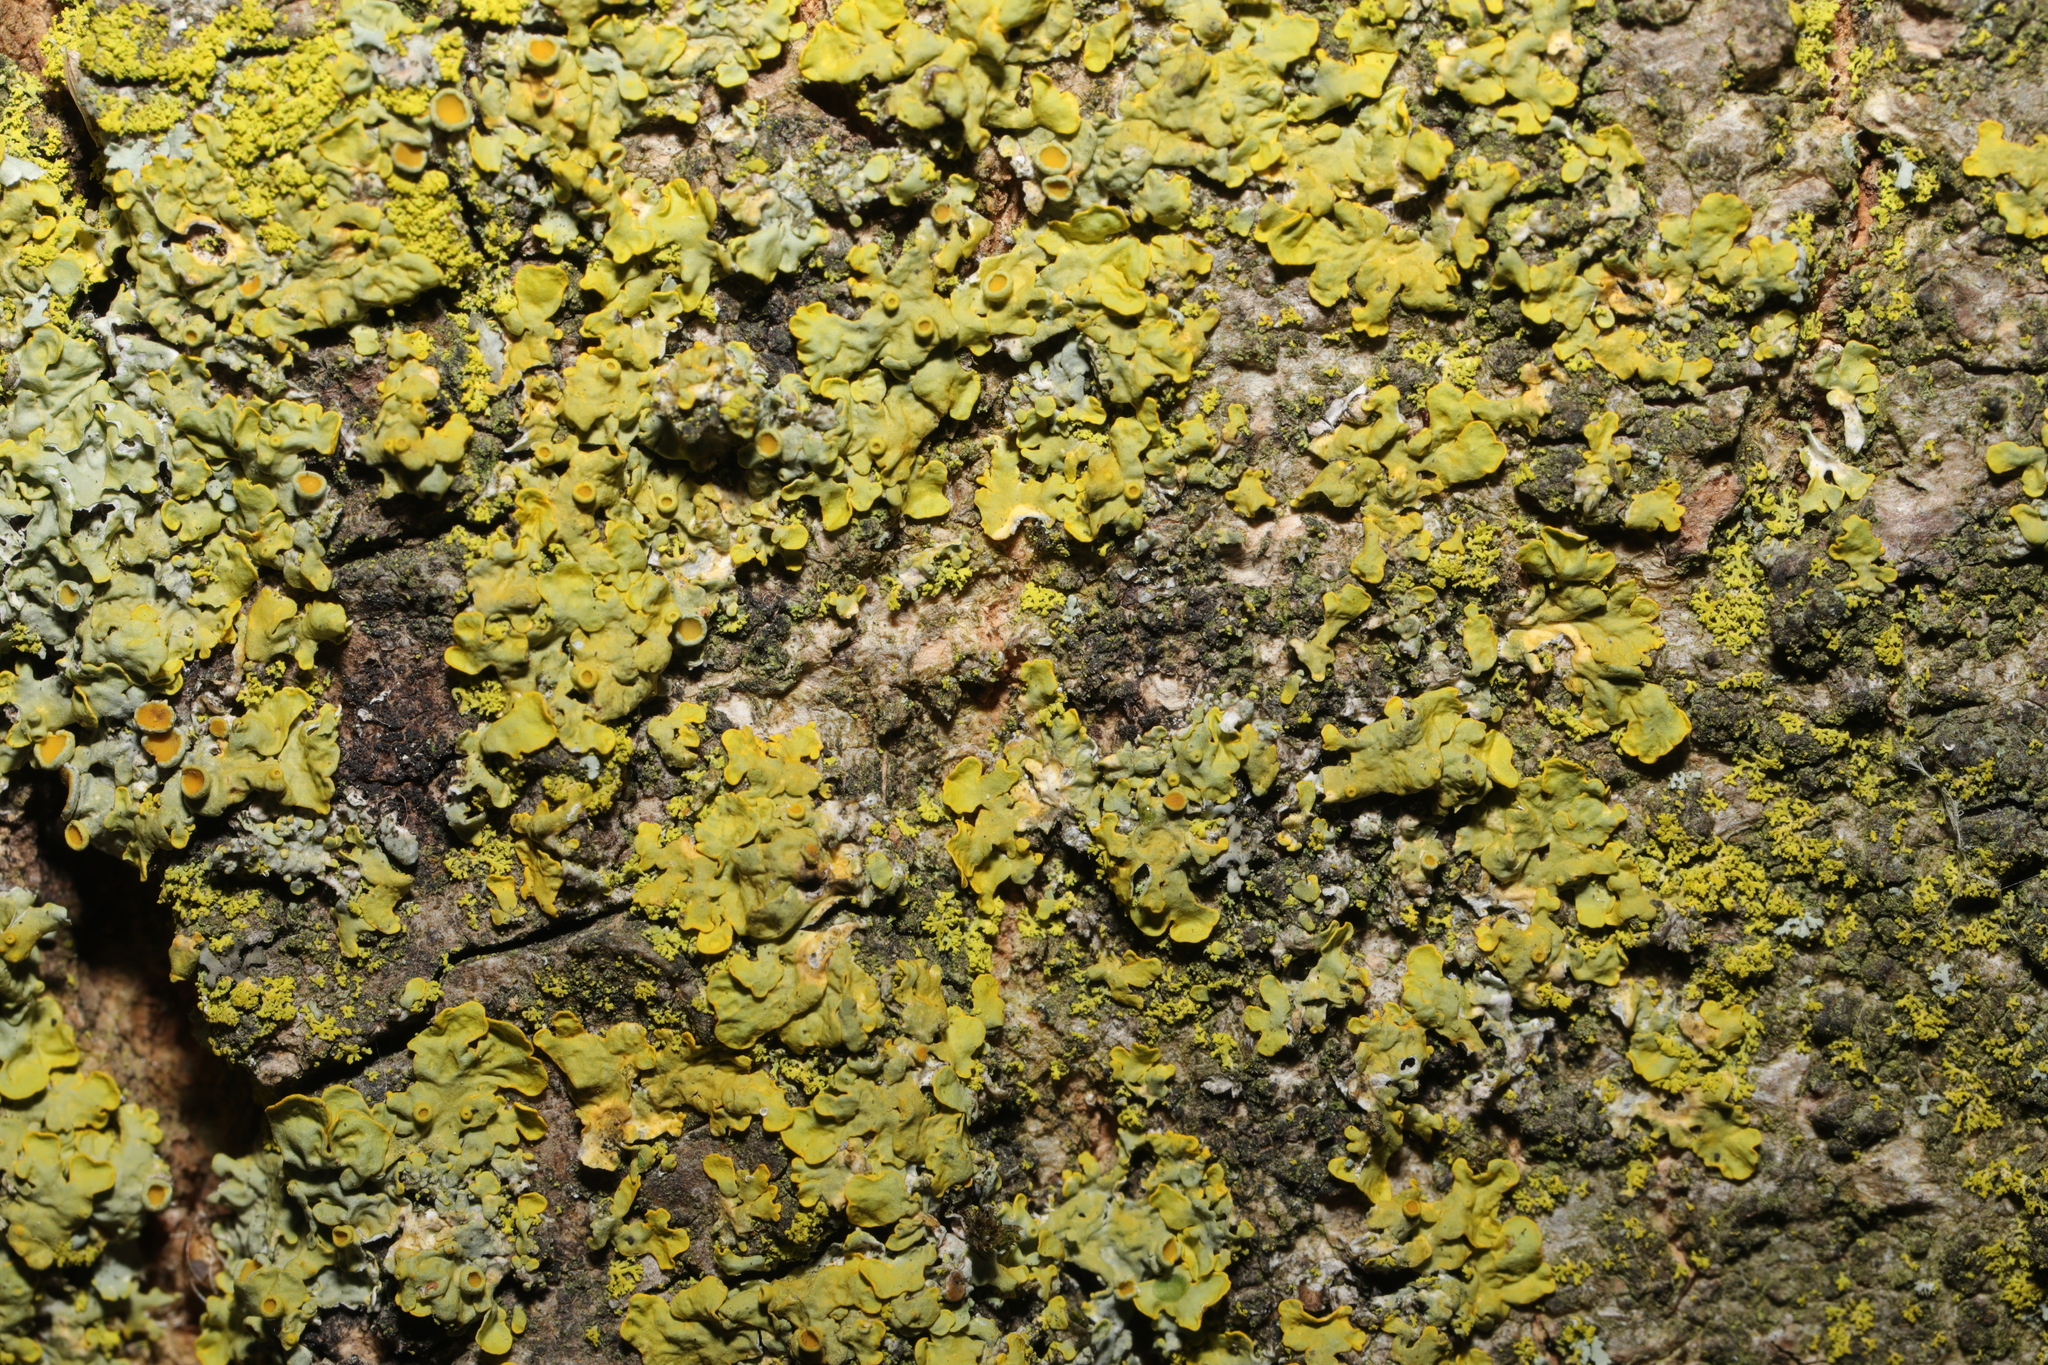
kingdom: Fungi
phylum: Ascomycota
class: Lecanoromycetes
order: Teloschistales
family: Teloschistaceae
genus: Xanthoria
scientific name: Xanthoria parietina
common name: Common orange lichen
